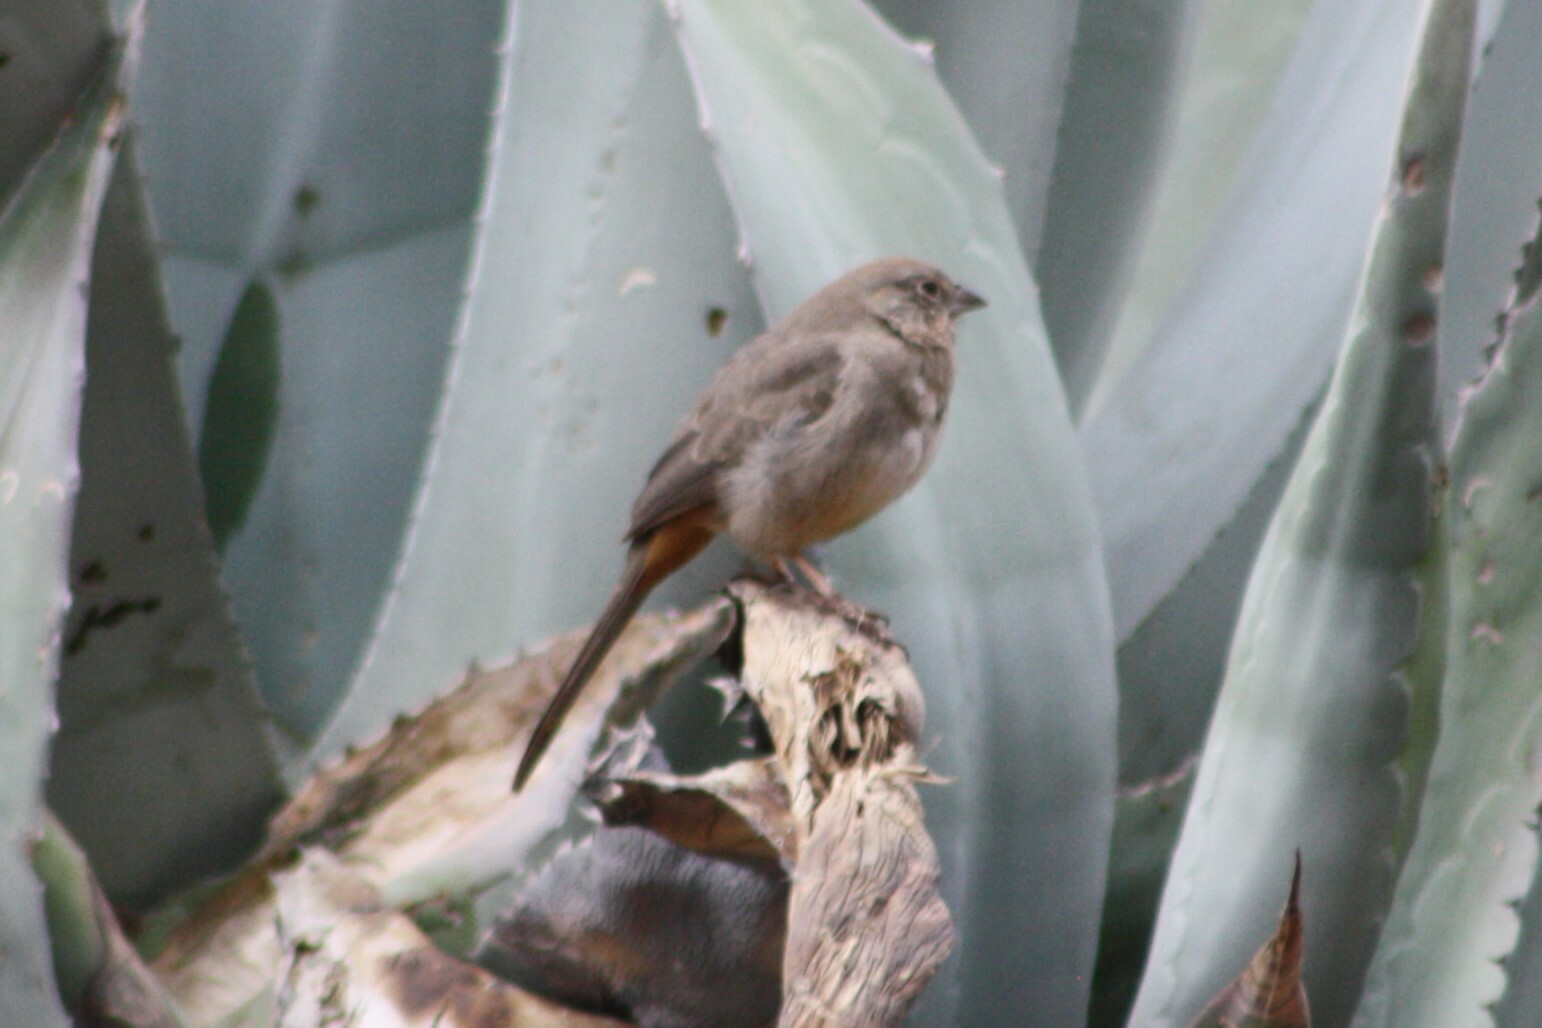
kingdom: Animalia
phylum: Chordata
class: Aves
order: Passeriformes
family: Passerellidae
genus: Melozone
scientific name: Melozone fusca
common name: Canyon towhee
